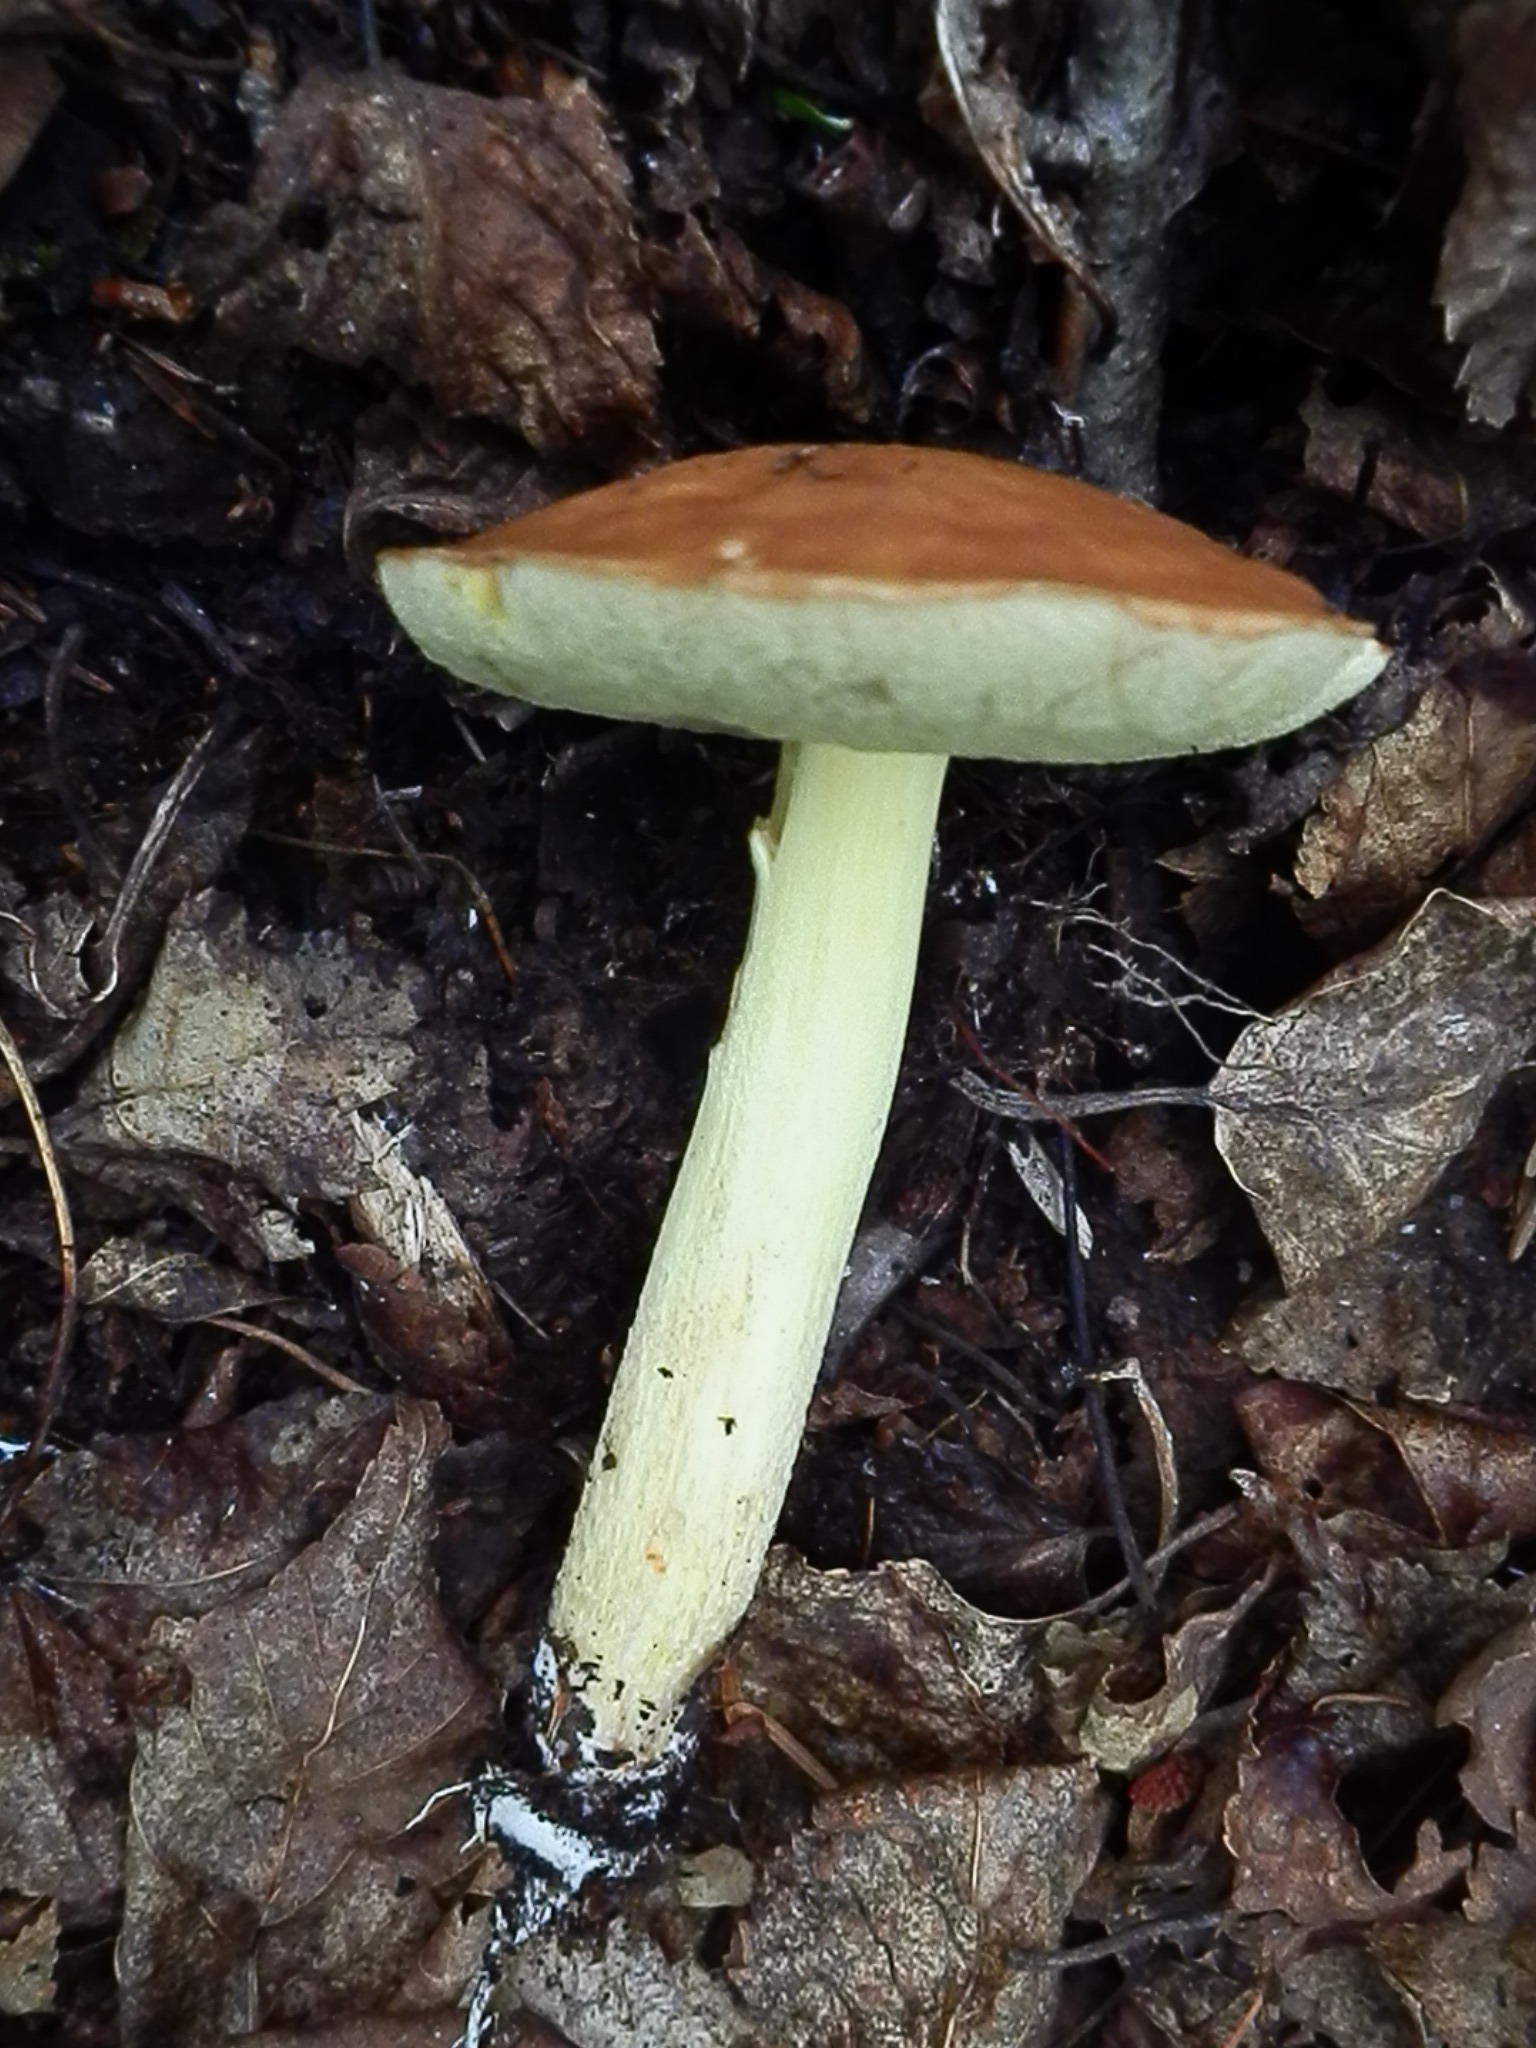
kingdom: Fungi
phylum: Basidiomycota
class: Agaricomycetes
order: Boletales
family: Boletaceae
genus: Hemileccinum
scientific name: Hemileccinum subglabripes
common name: Smoothish-stemmed bolete
